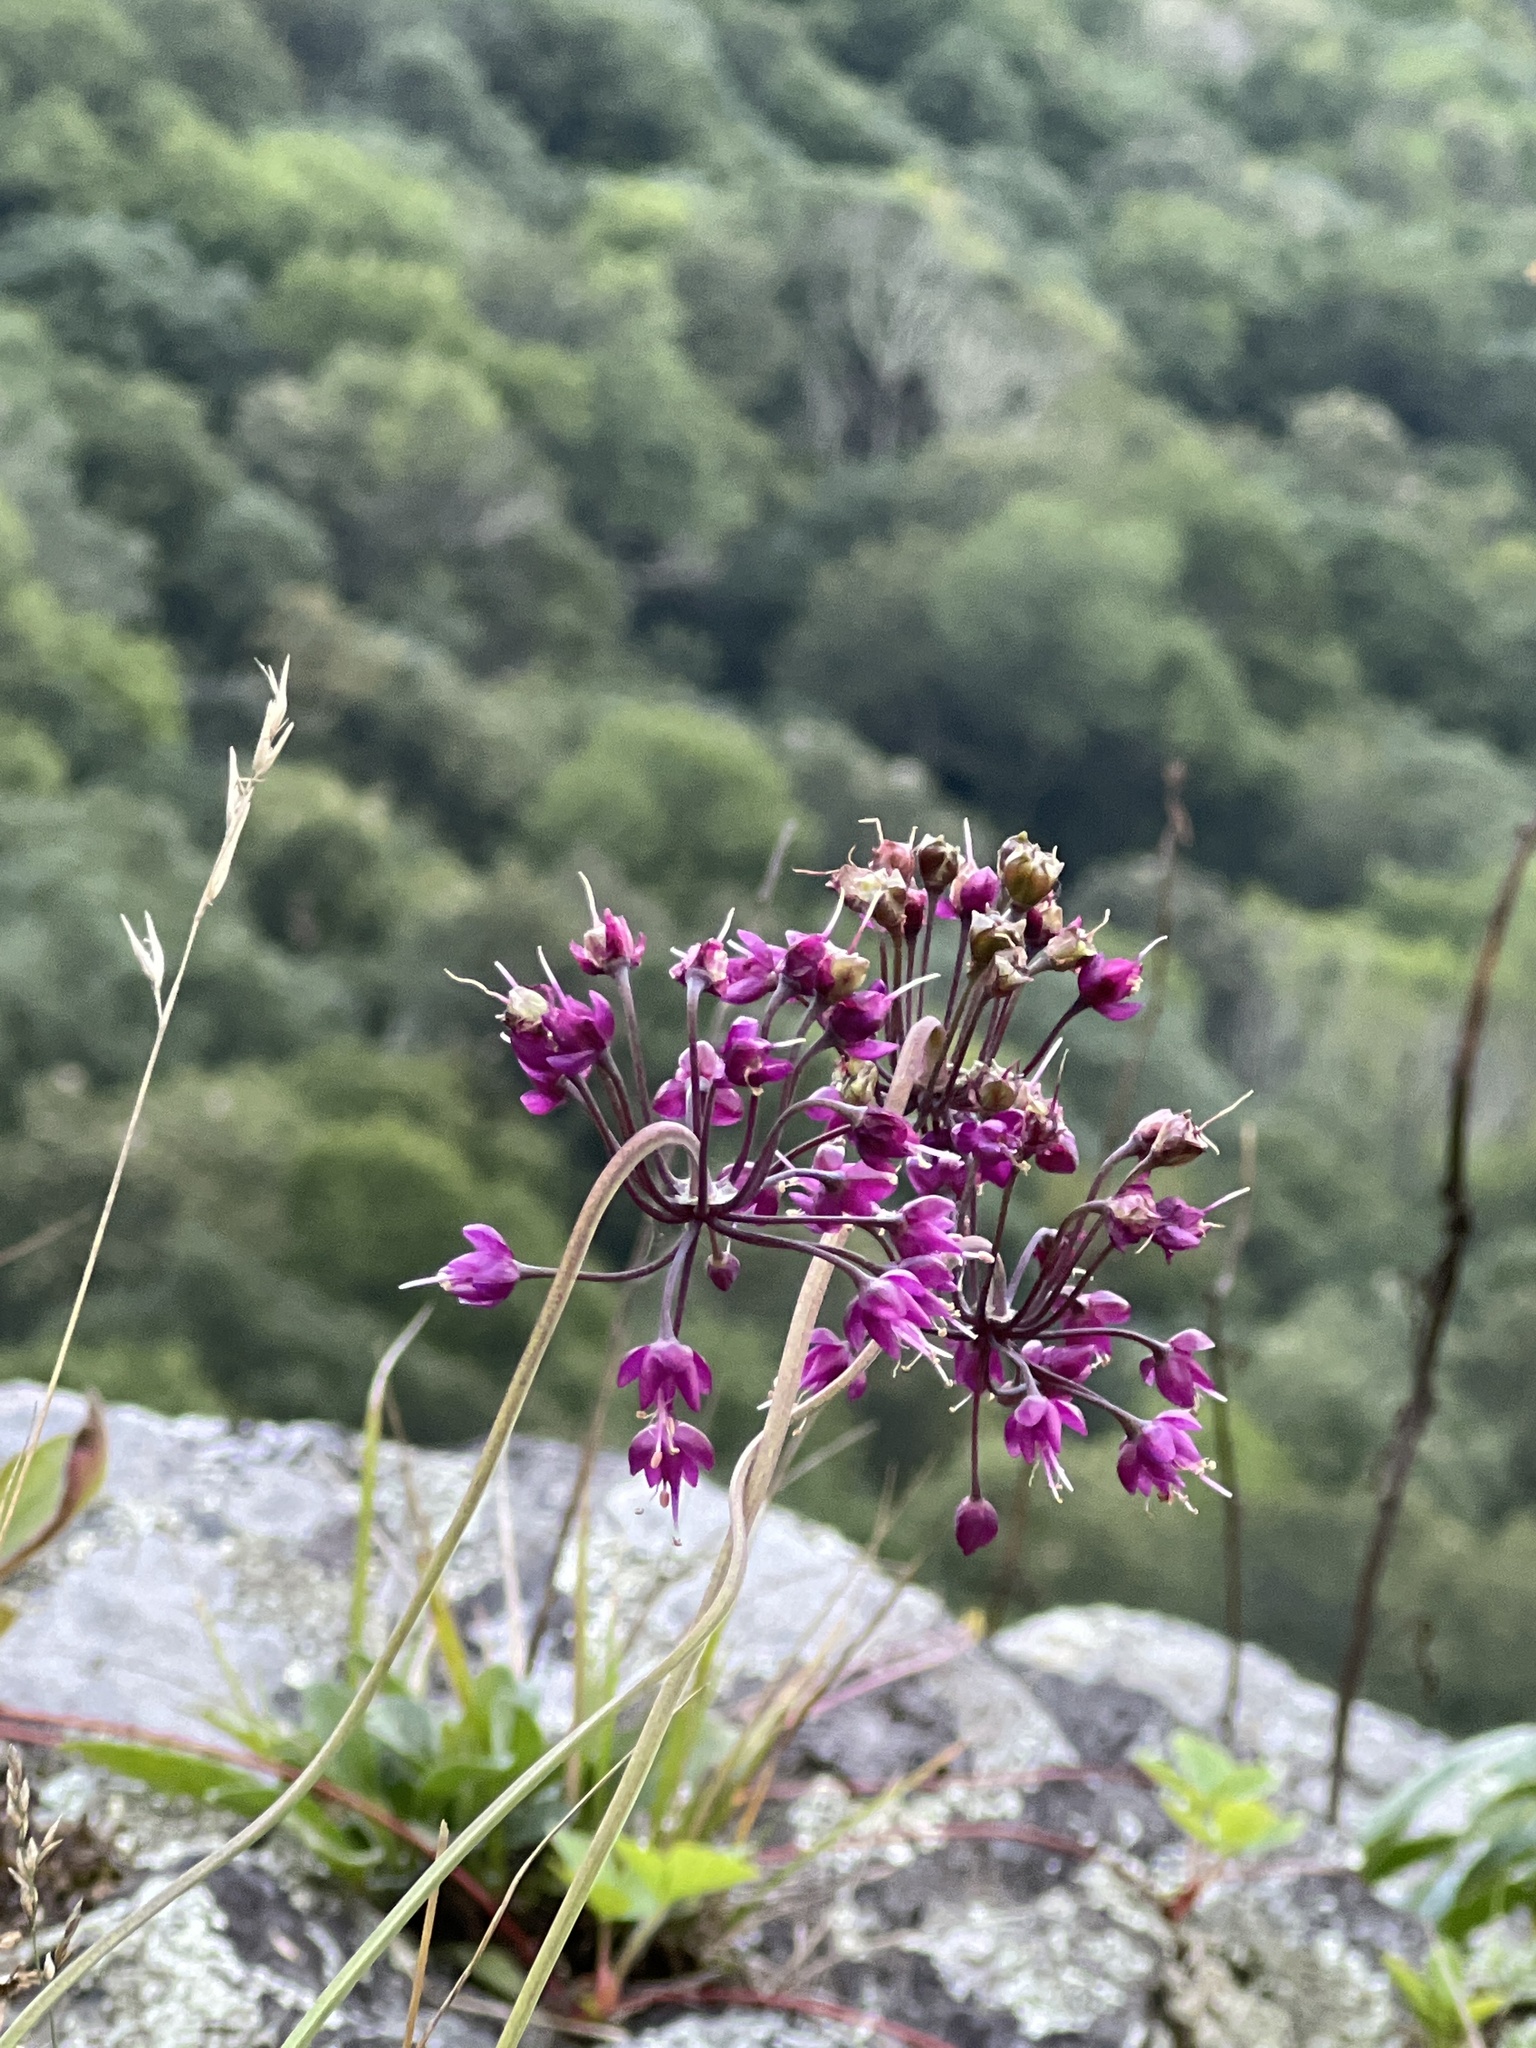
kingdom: Plantae
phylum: Tracheophyta
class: Liliopsida
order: Asparagales
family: Amaryllidaceae
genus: Allium
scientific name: Allium cernuum
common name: Nodding onion
